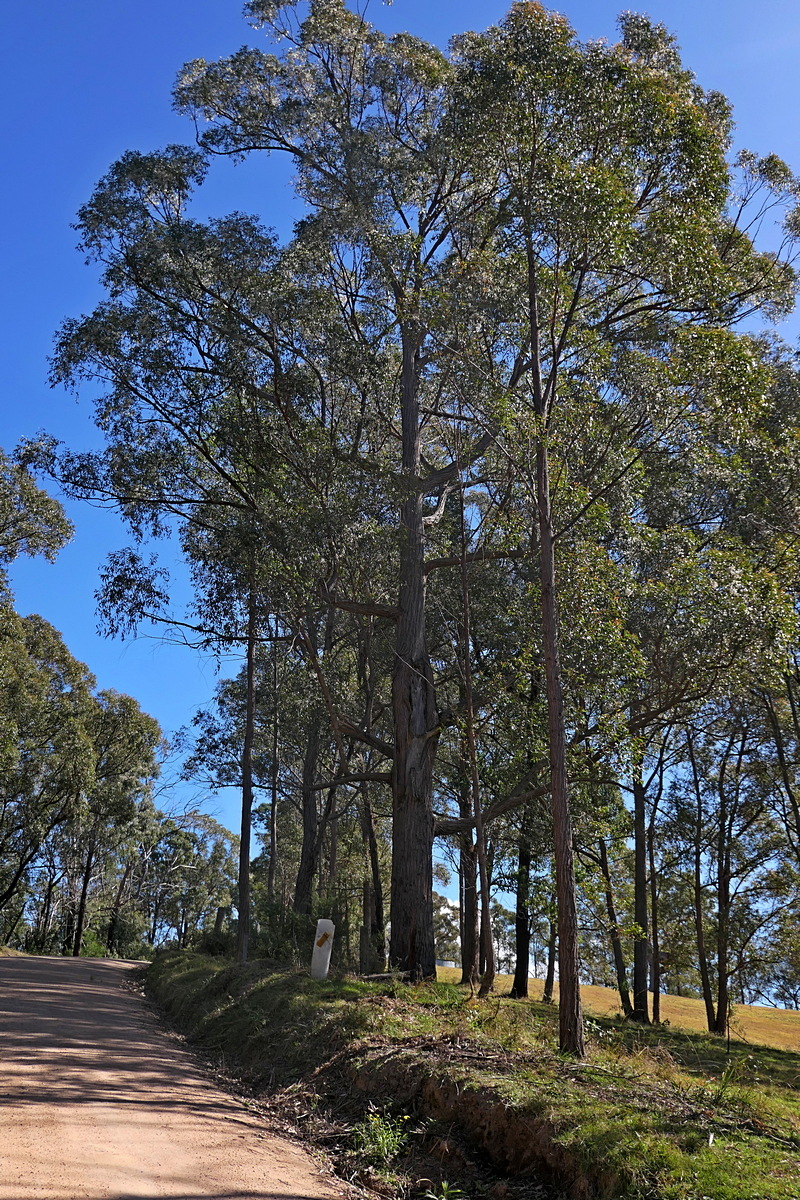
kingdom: Plantae
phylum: Tracheophyta
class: Magnoliopsida
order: Myrtales
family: Myrtaceae
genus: Eucalyptus
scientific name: Eucalyptus globoidea
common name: White-stringybark
